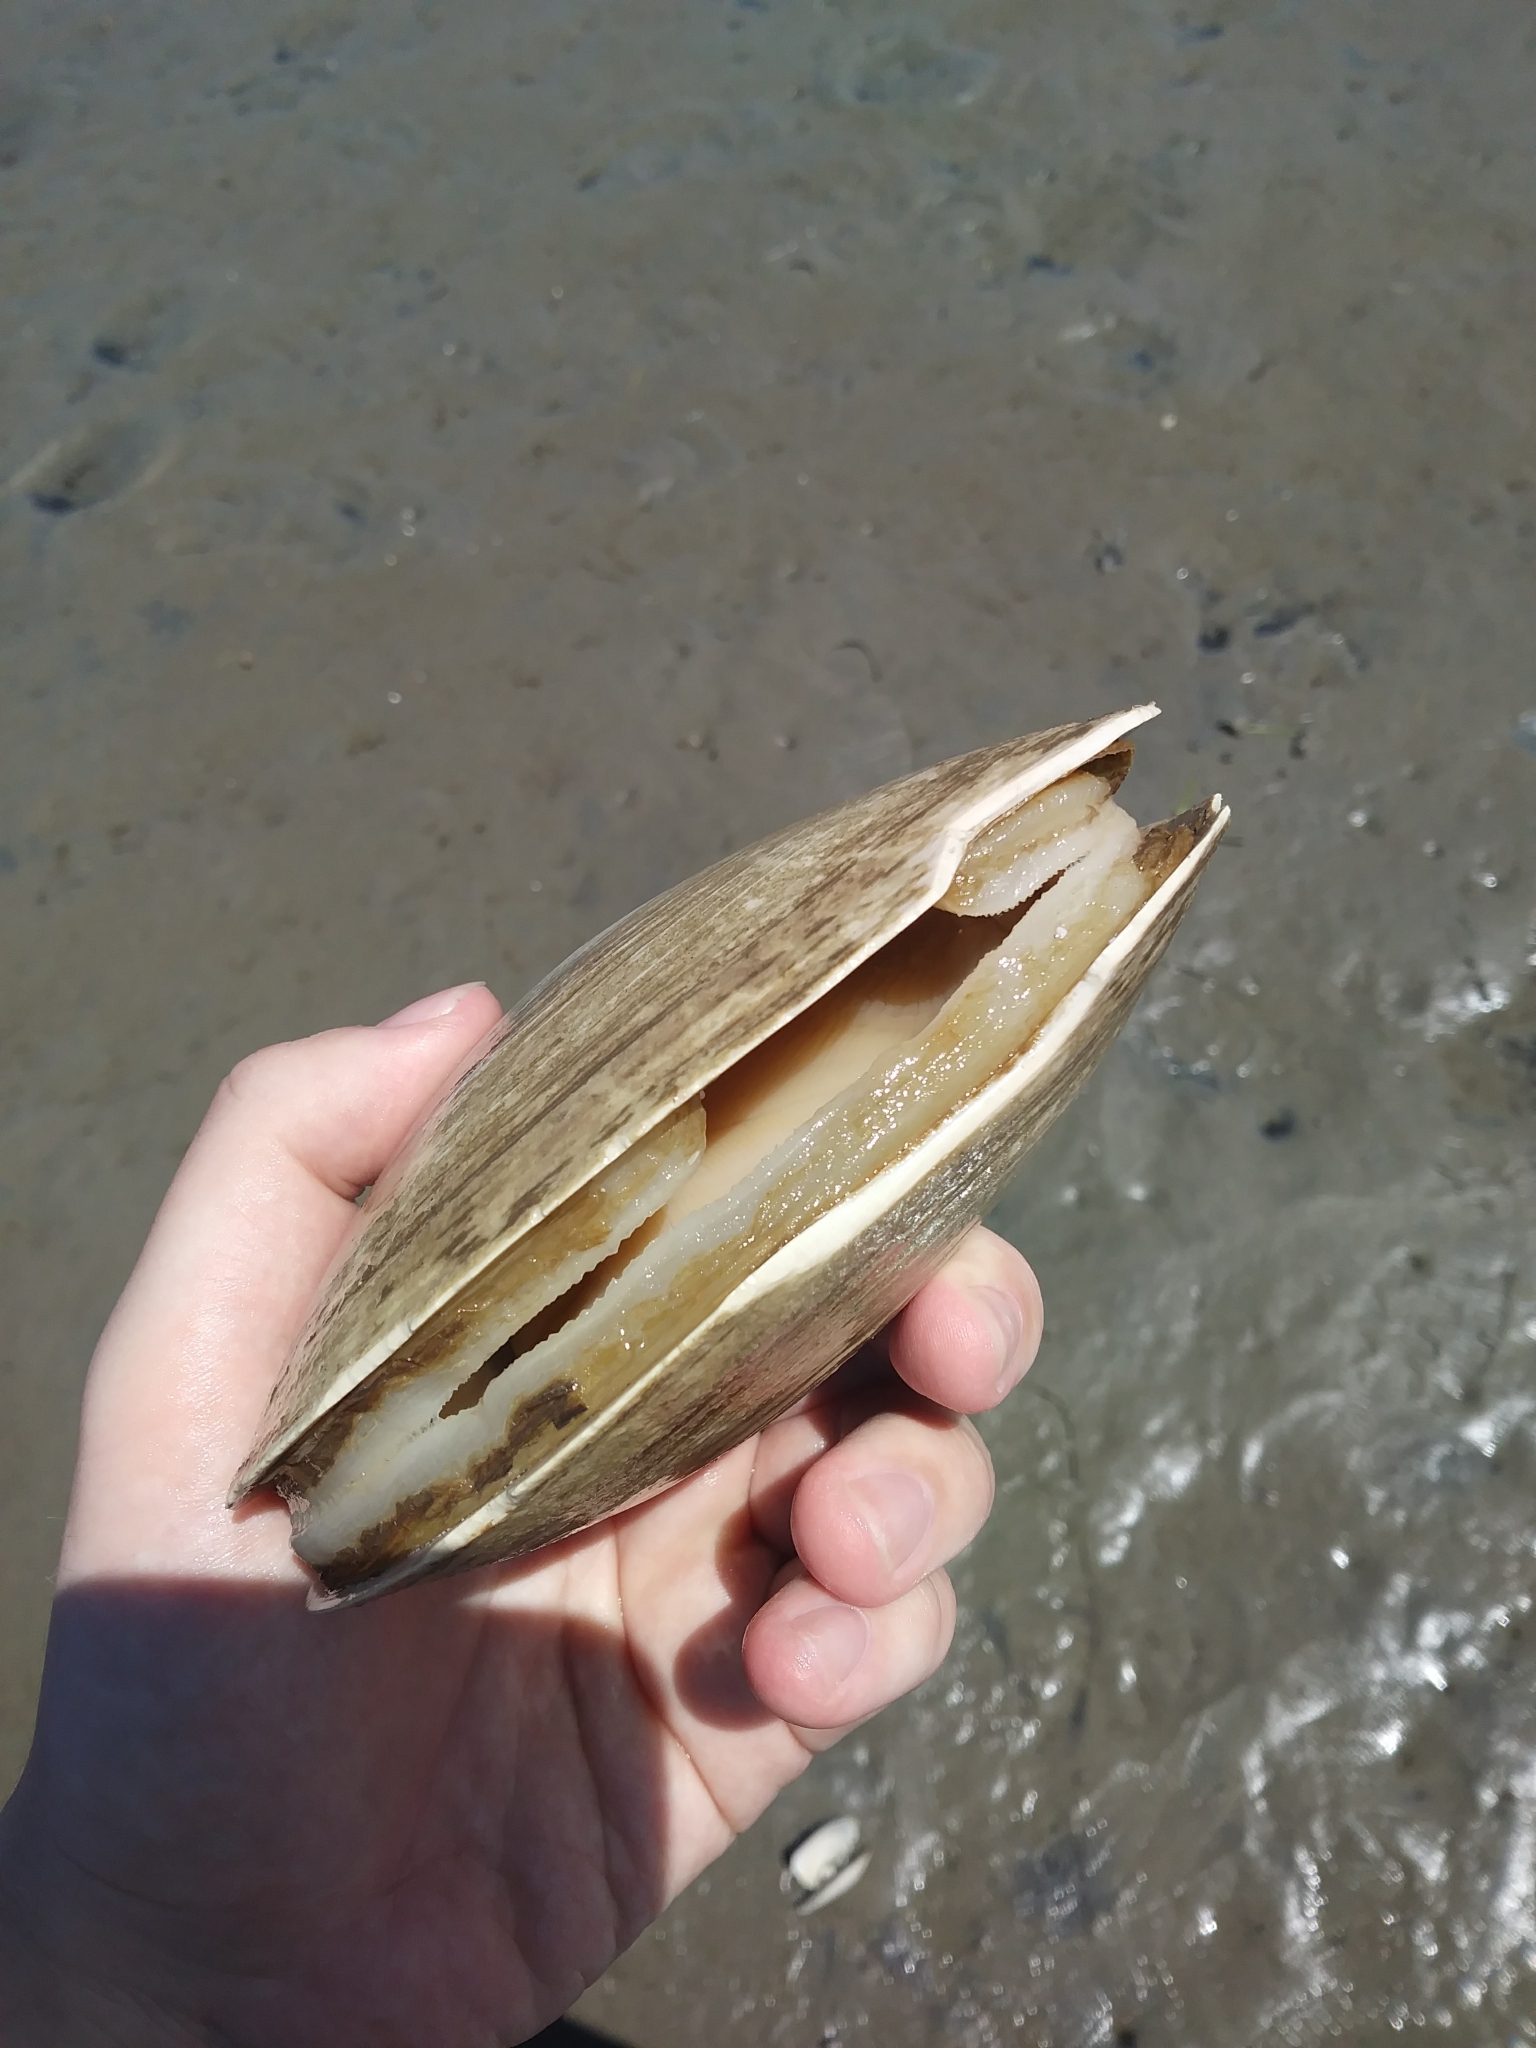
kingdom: Animalia
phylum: Mollusca
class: Bivalvia
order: Venerida
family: Mactridae
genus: Spisula
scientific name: Spisula solidissima
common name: Atlantic surf clam
